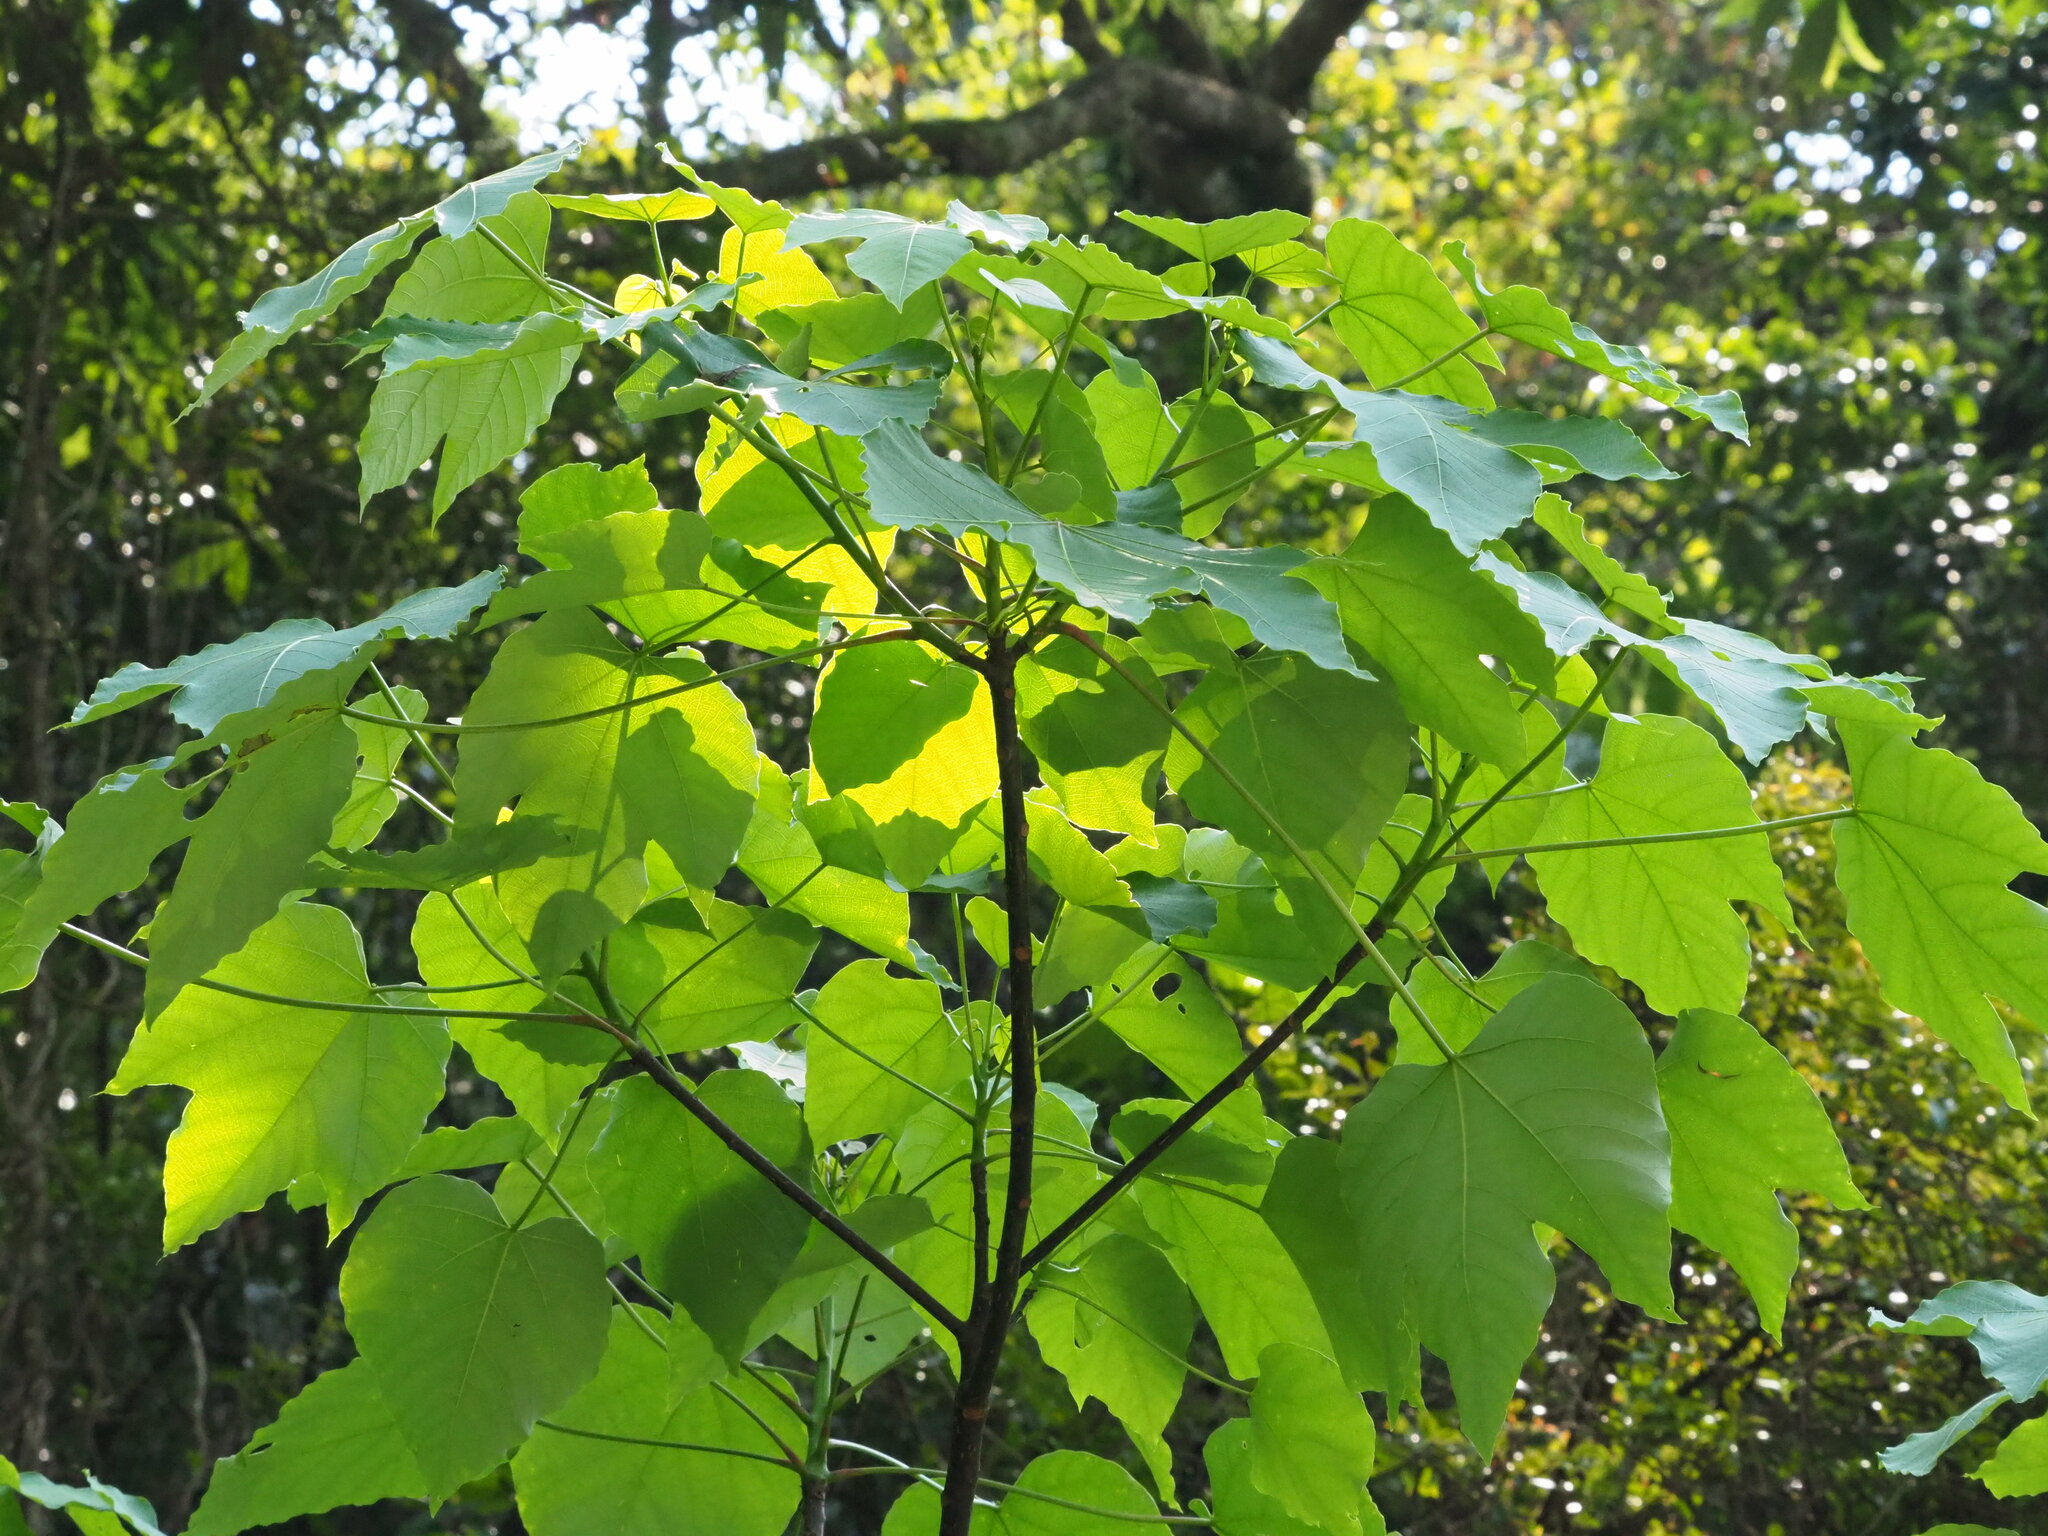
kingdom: Plantae
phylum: Tracheophyta
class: Magnoliopsida
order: Malpighiales
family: Euphorbiaceae
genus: Vernicia
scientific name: Vernicia montana
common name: Mu oil tree
